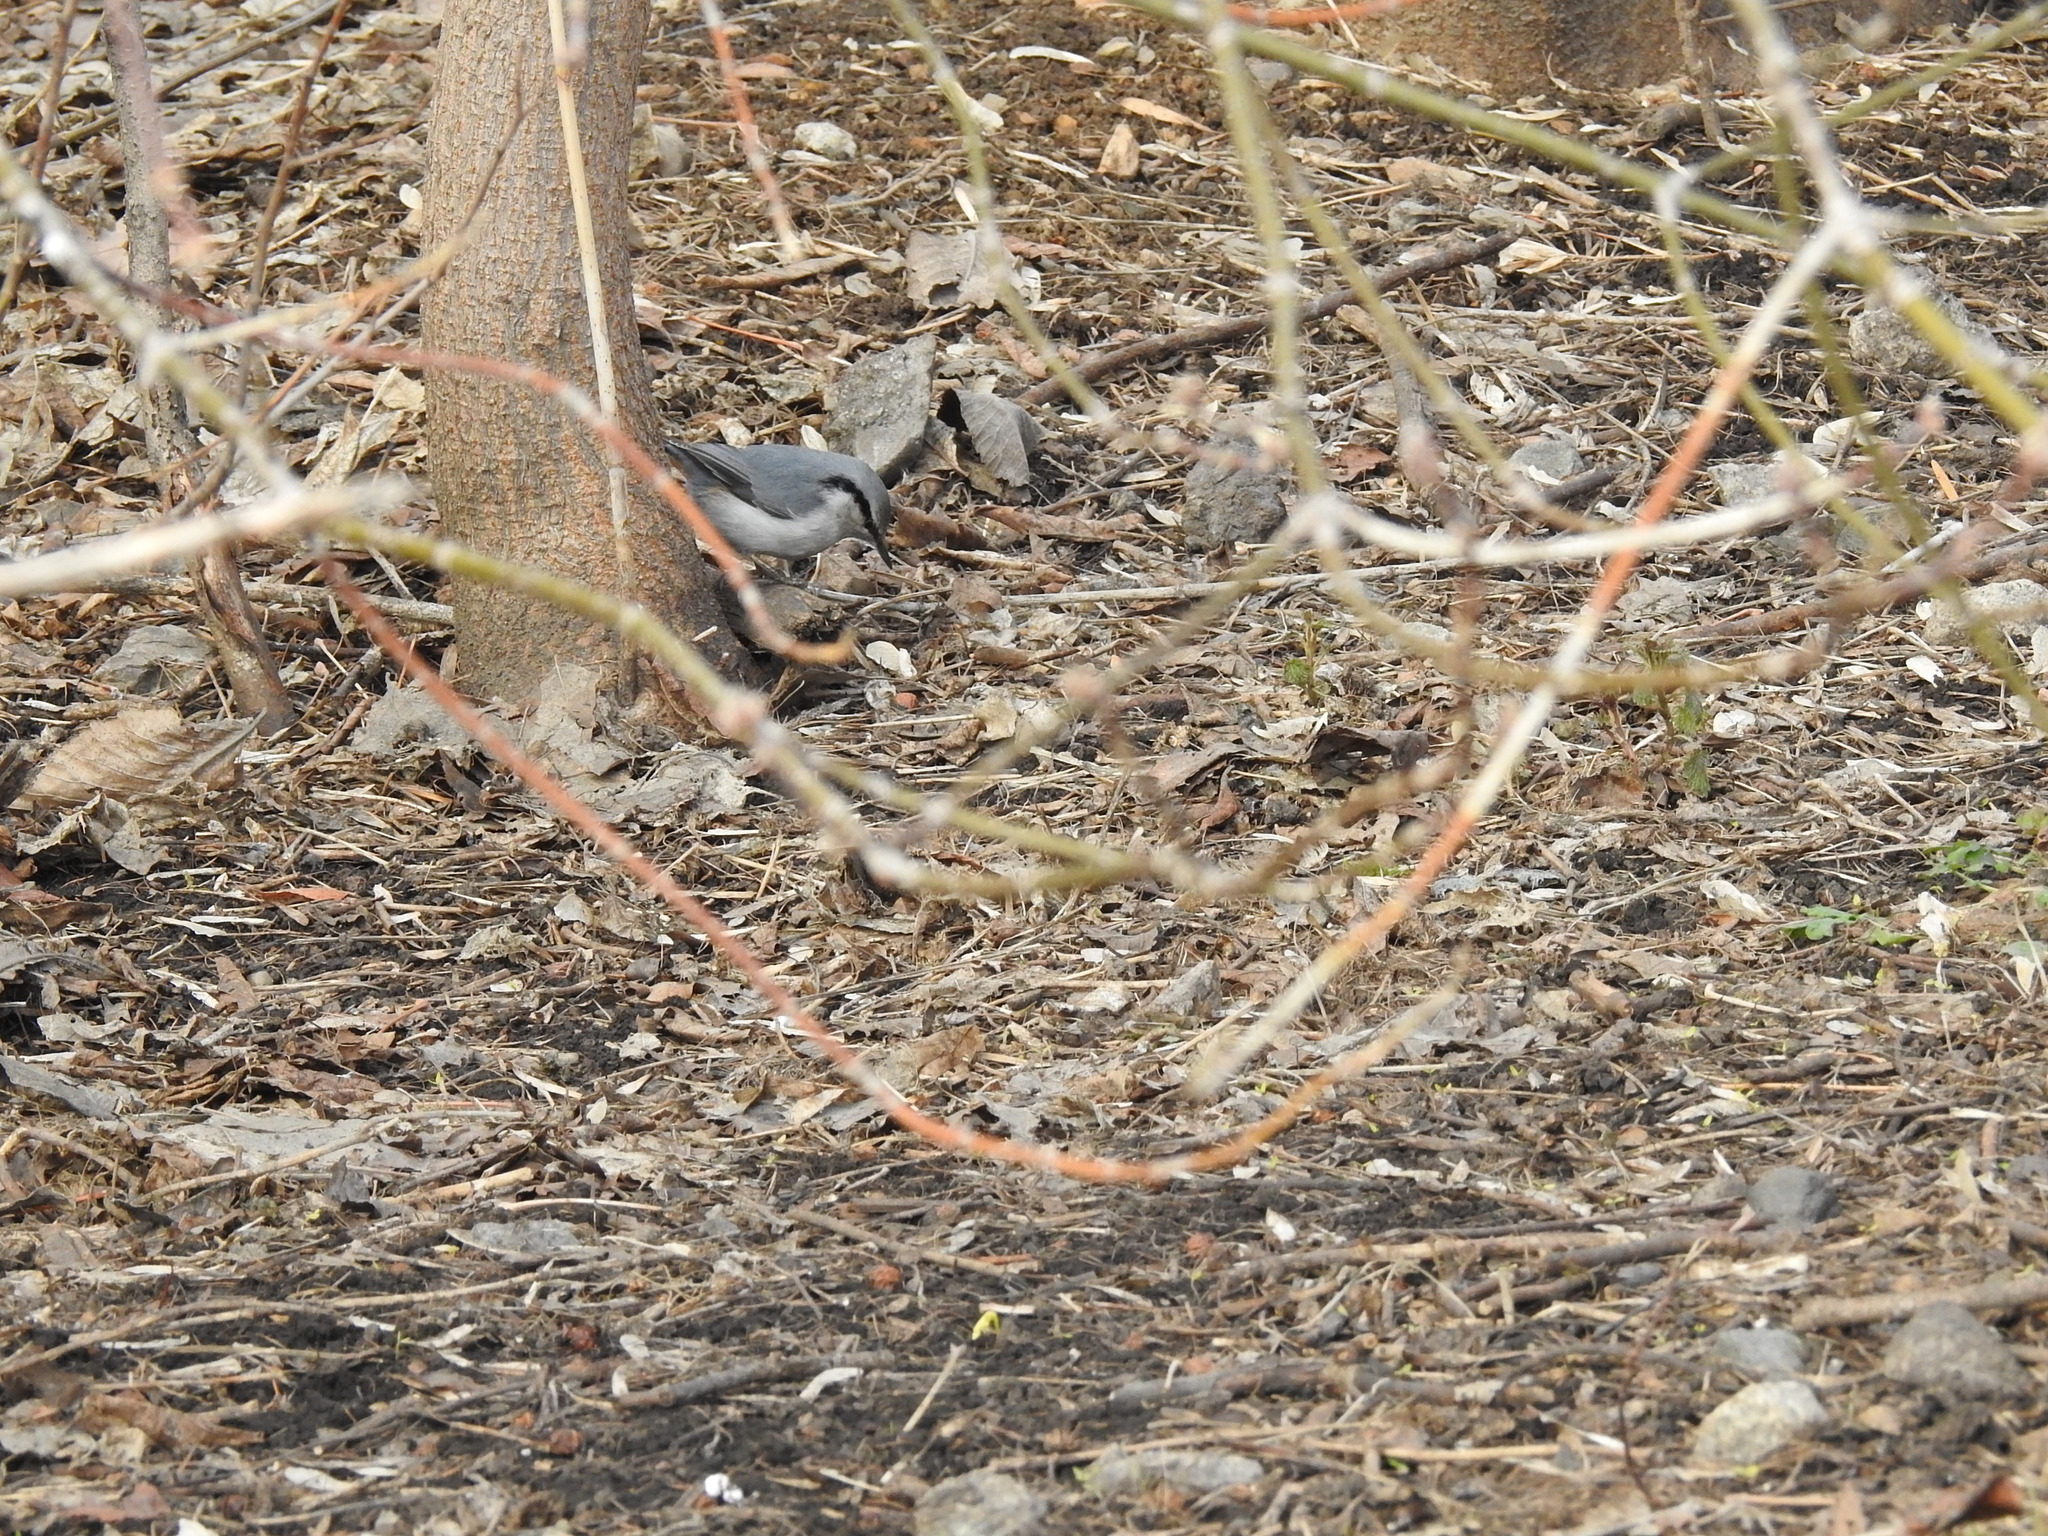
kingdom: Animalia
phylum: Chordata
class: Aves
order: Passeriformes
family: Sittidae
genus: Sitta
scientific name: Sitta europaea
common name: Eurasian nuthatch
